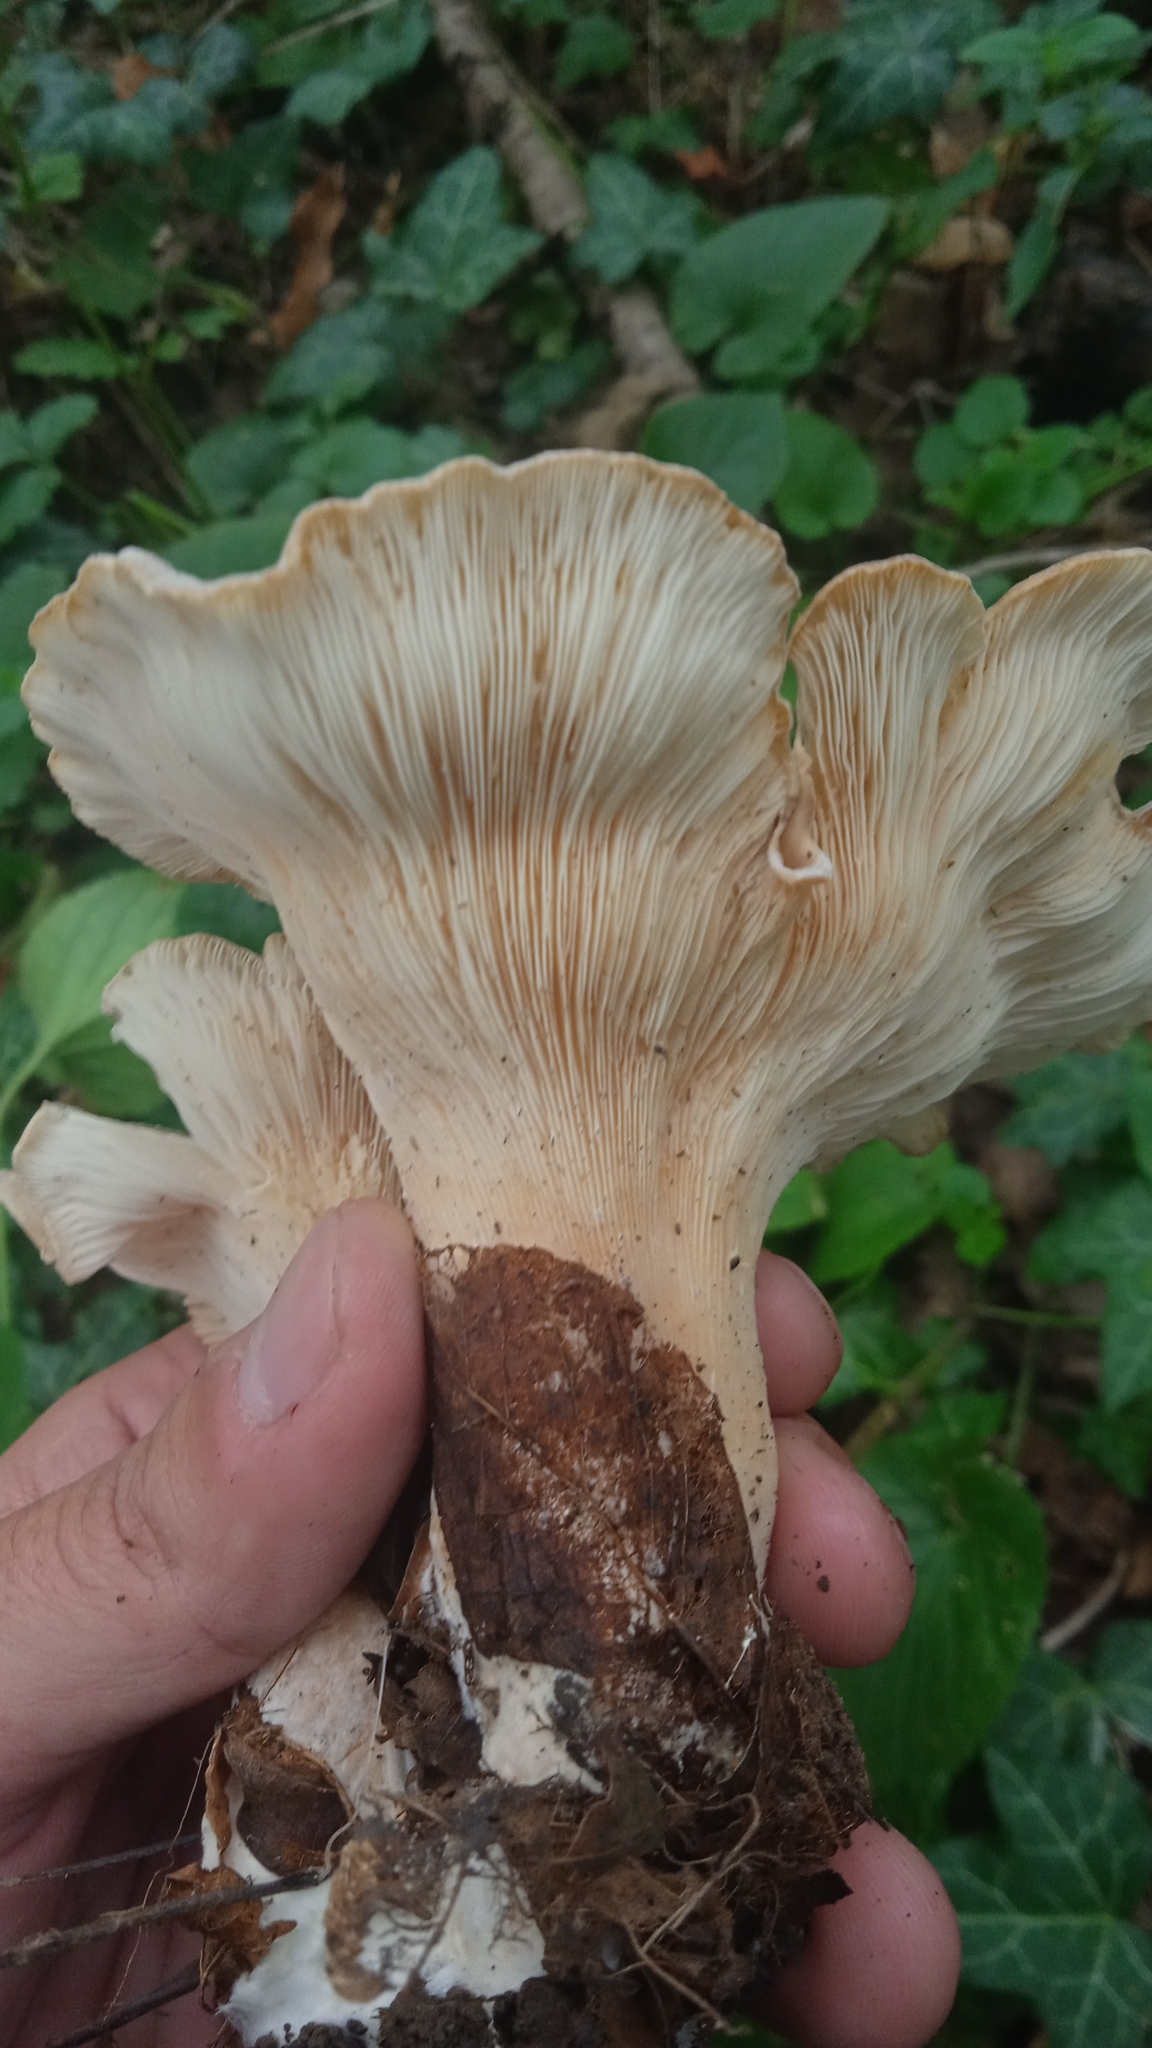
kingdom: Fungi
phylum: Basidiomycota
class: Agaricomycetes
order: Agaricales
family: Pleurotaceae
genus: Hohenbuehelia
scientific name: Hohenbuehelia petaloides
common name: Shoehorn oyster
